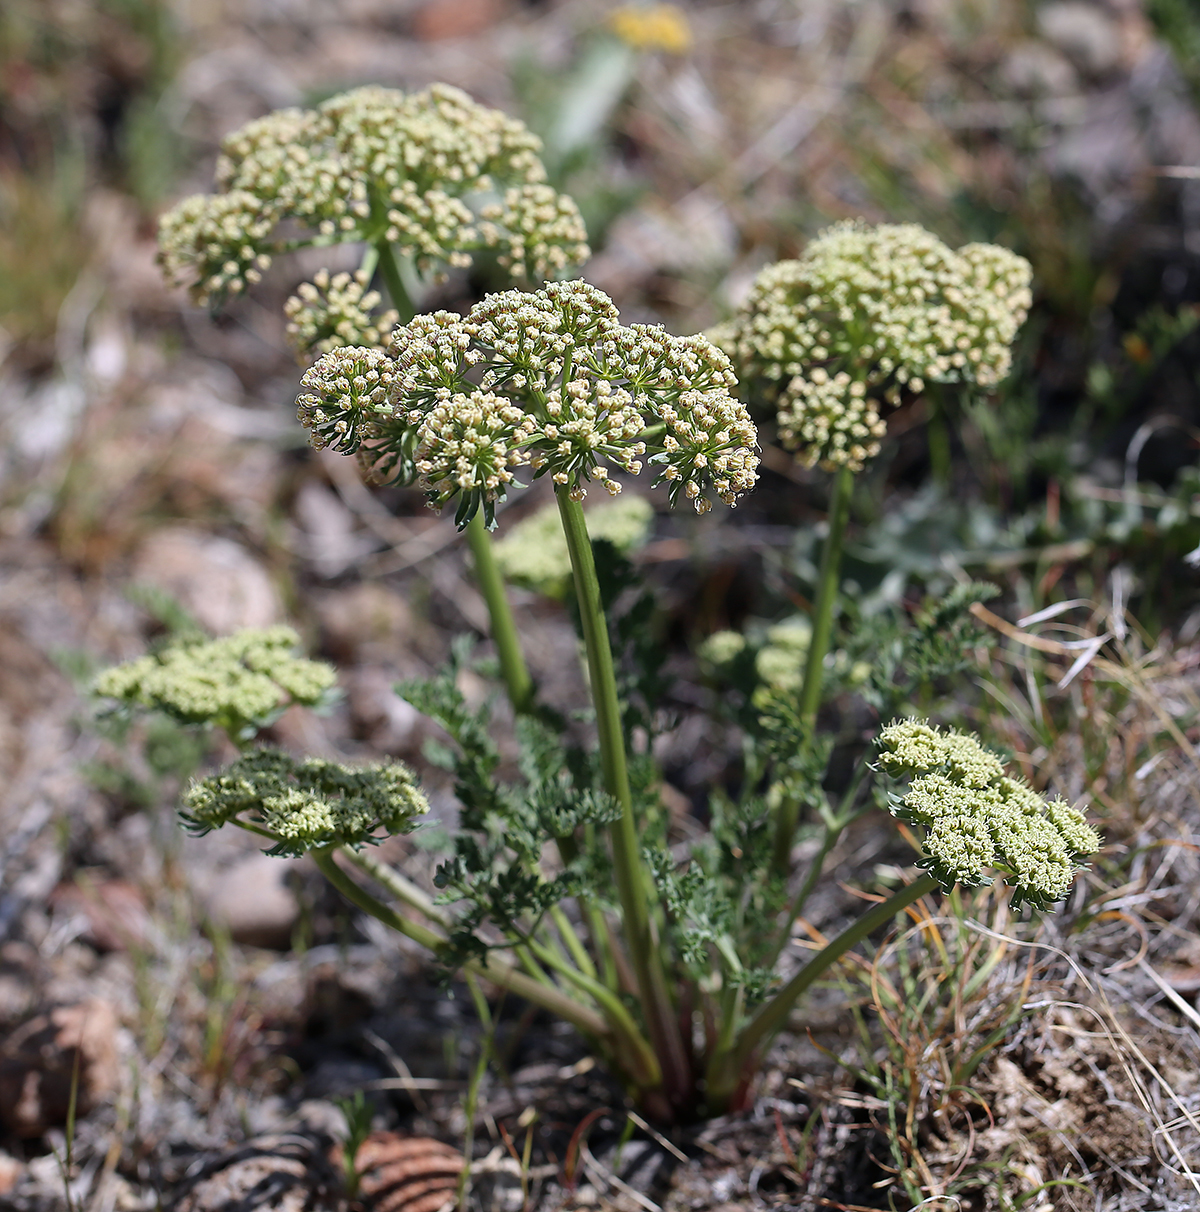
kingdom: Plantae
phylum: Tracheophyta
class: Magnoliopsida
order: Apiales
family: Apiaceae
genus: Lomatium
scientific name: Lomatium macrocarpum
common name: Big-seed biscuitroot
